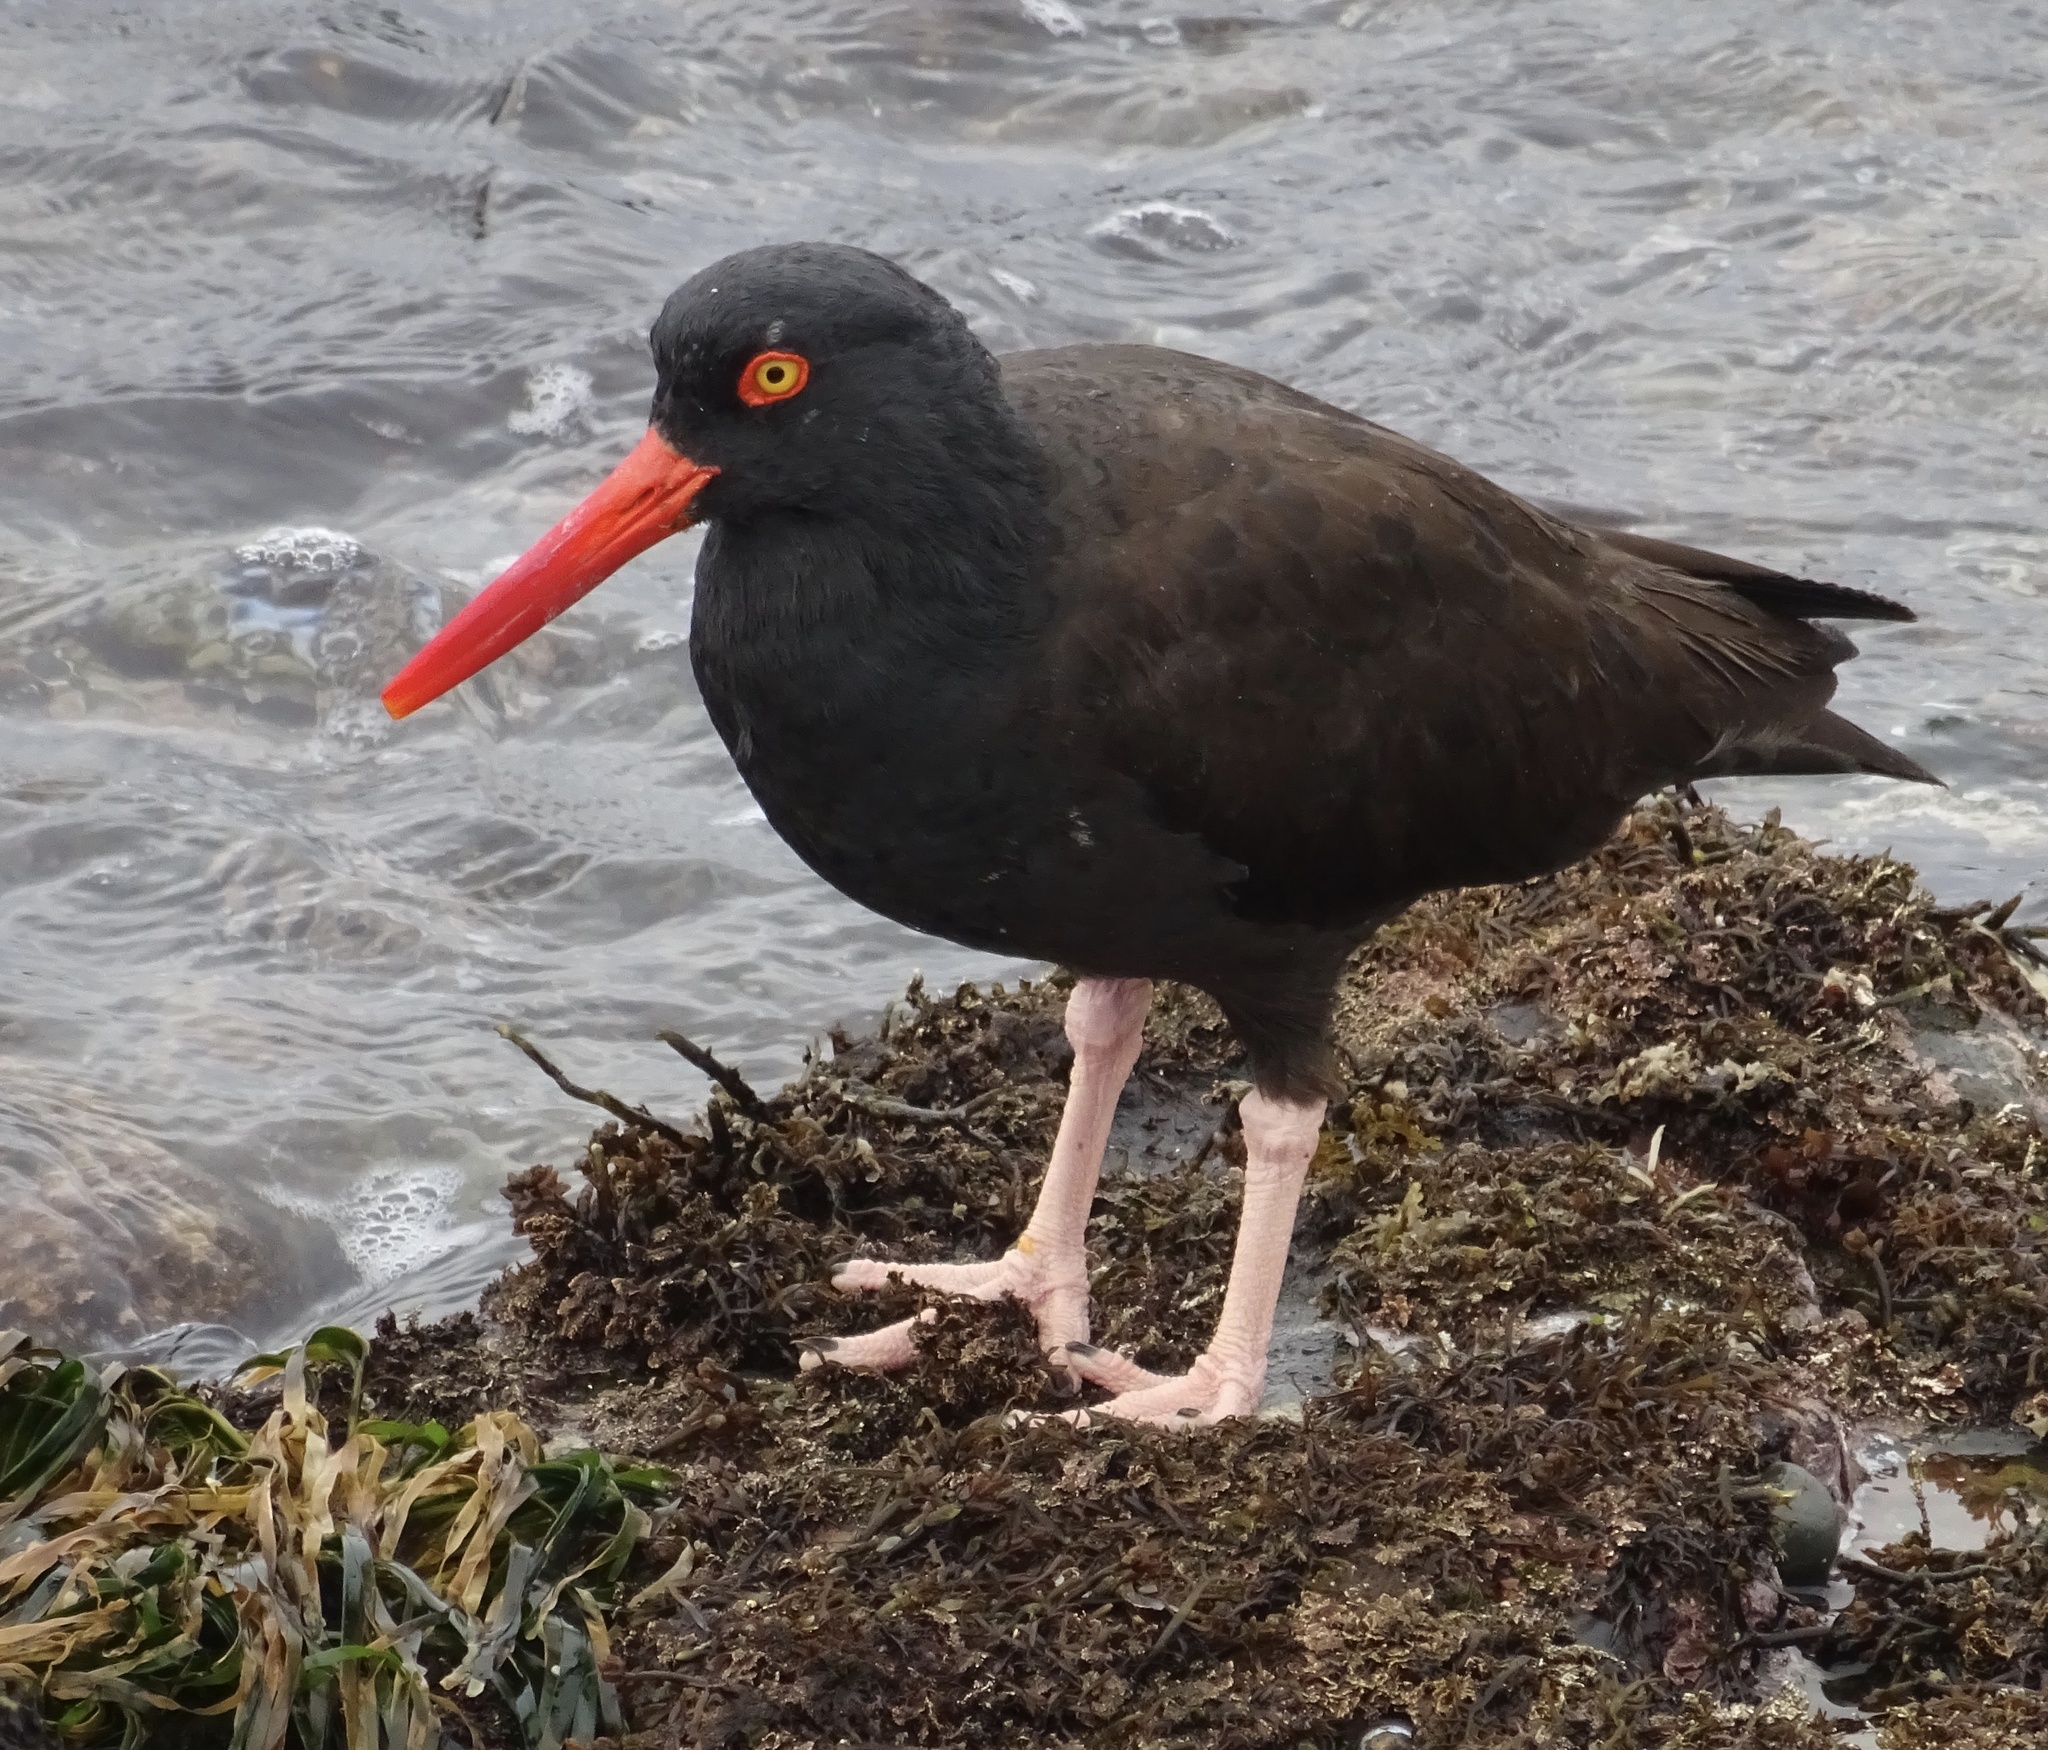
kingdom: Animalia
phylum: Chordata
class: Aves
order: Charadriiformes
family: Haematopodidae
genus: Haematopus
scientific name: Haematopus bachmani
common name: Black oystercatcher
